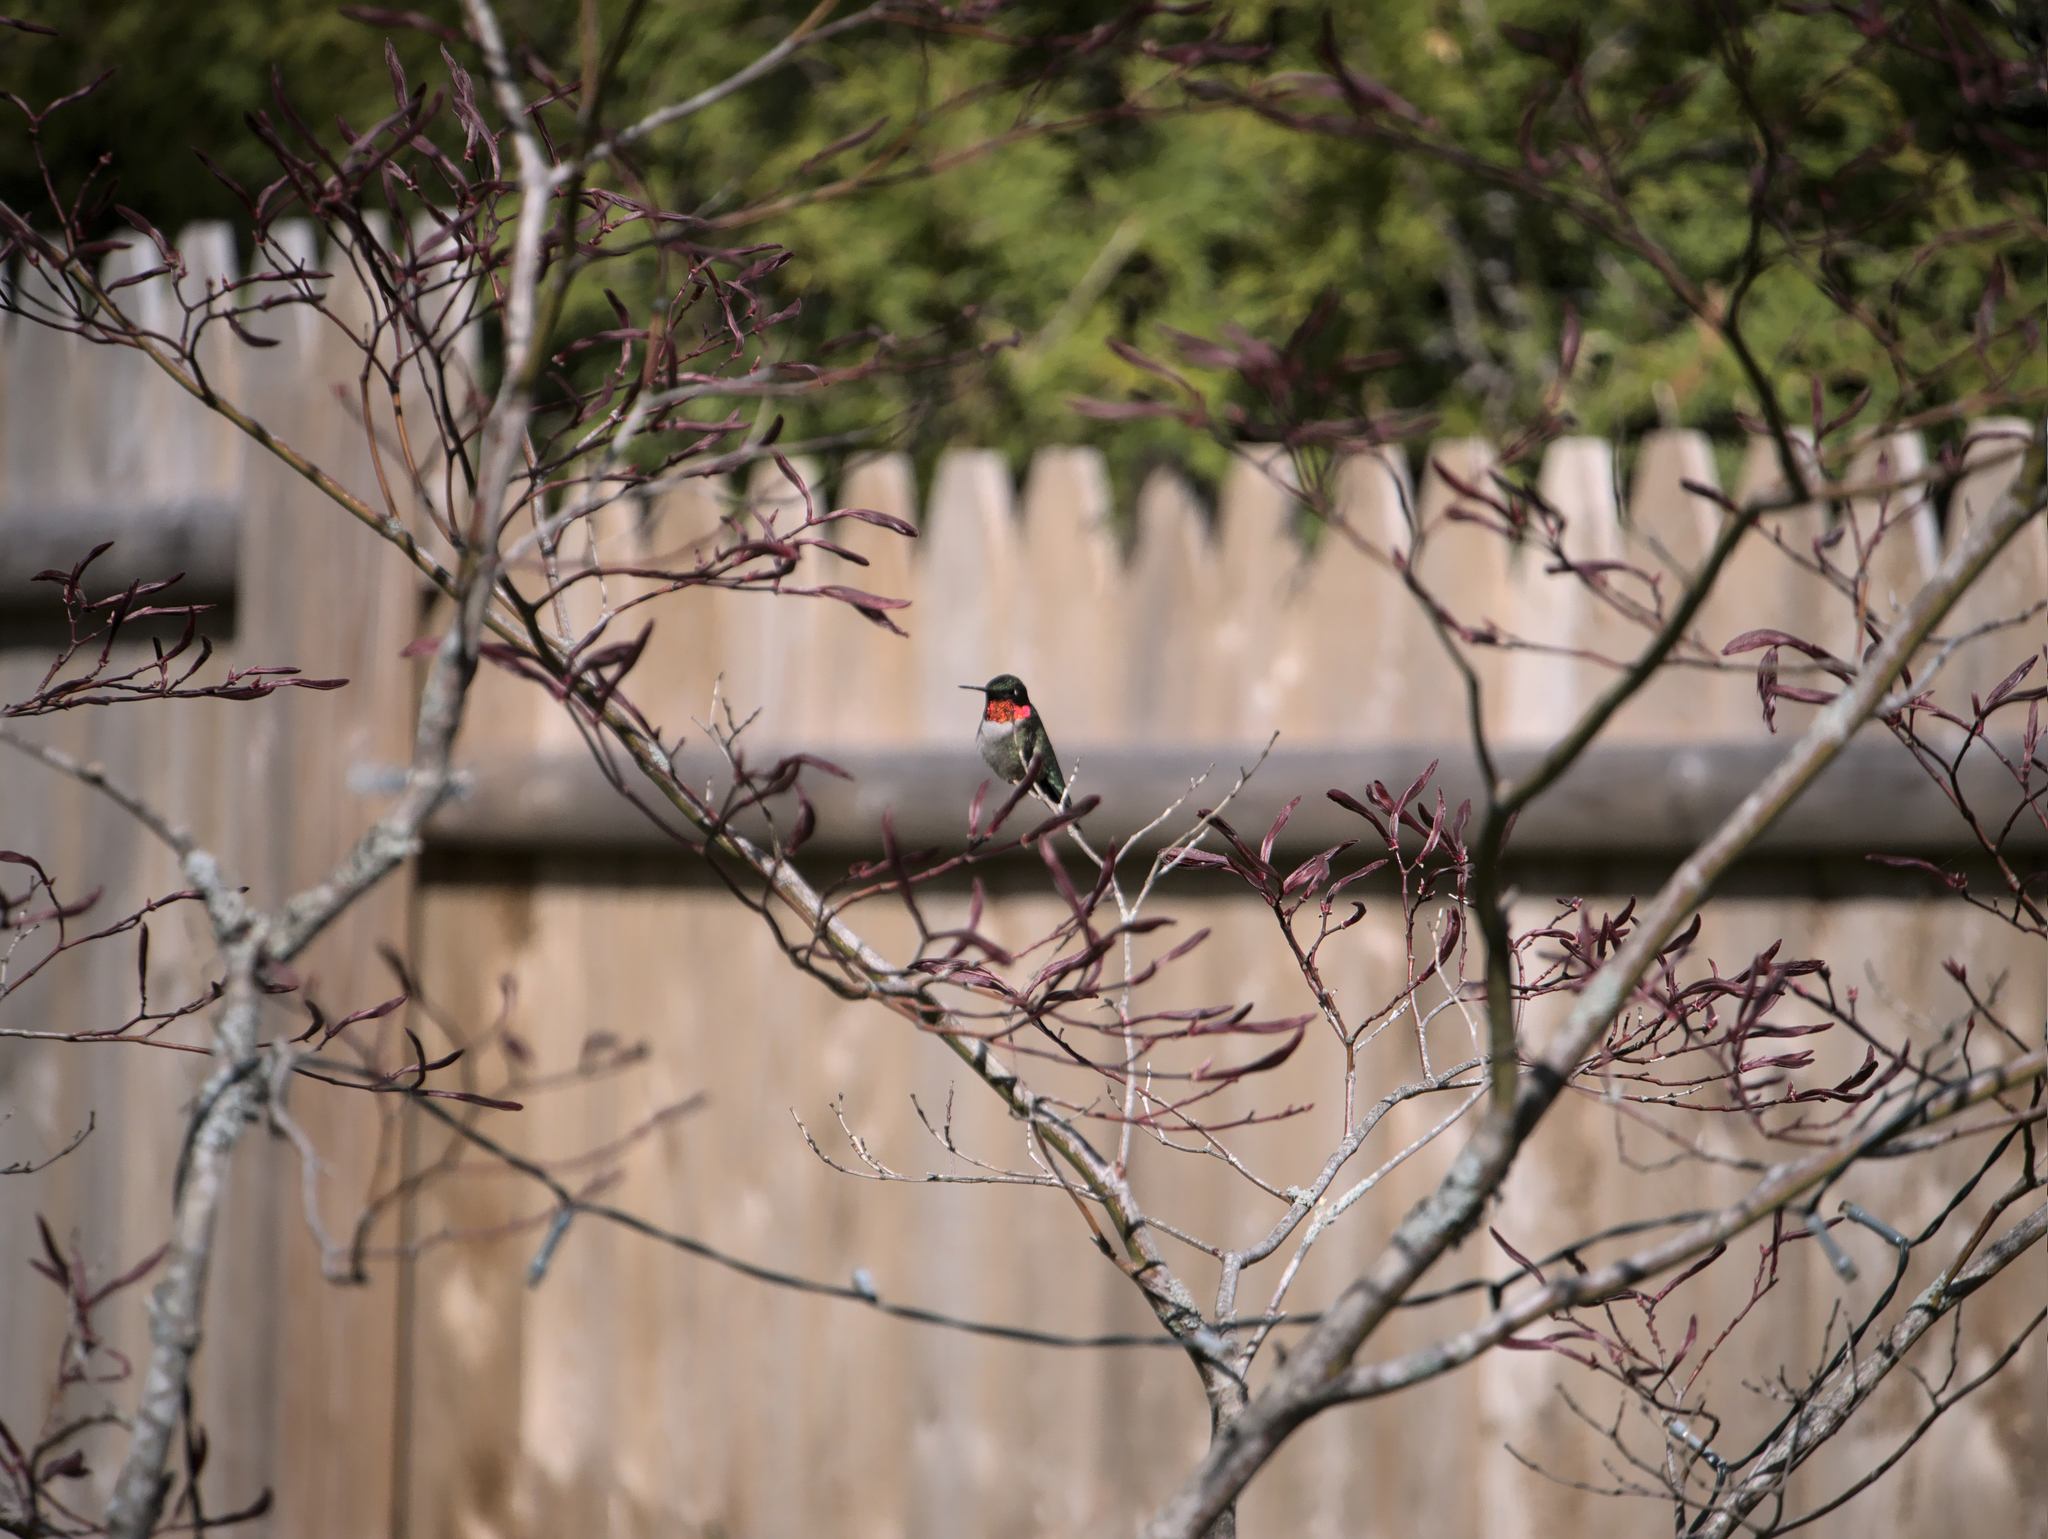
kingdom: Animalia
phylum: Chordata
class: Aves
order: Apodiformes
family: Trochilidae
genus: Archilochus
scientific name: Archilochus colubris
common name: Ruby-throated hummingbird
